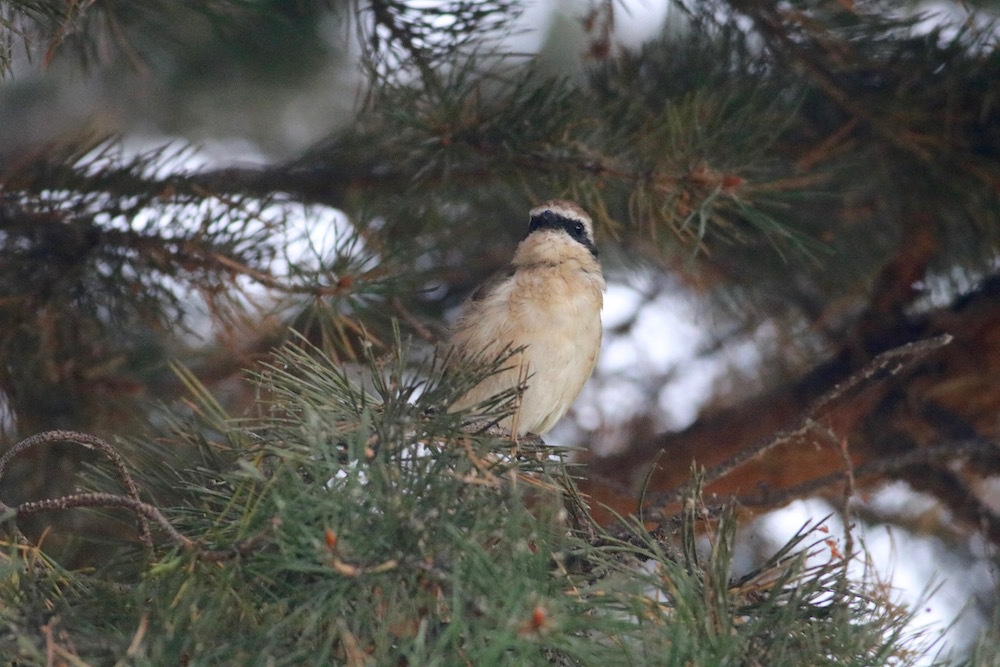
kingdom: Animalia
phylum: Chordata
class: Aves
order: Passeriformes
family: Laniidae
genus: Lanius
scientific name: Lanius cristatus
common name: Brown shrike
